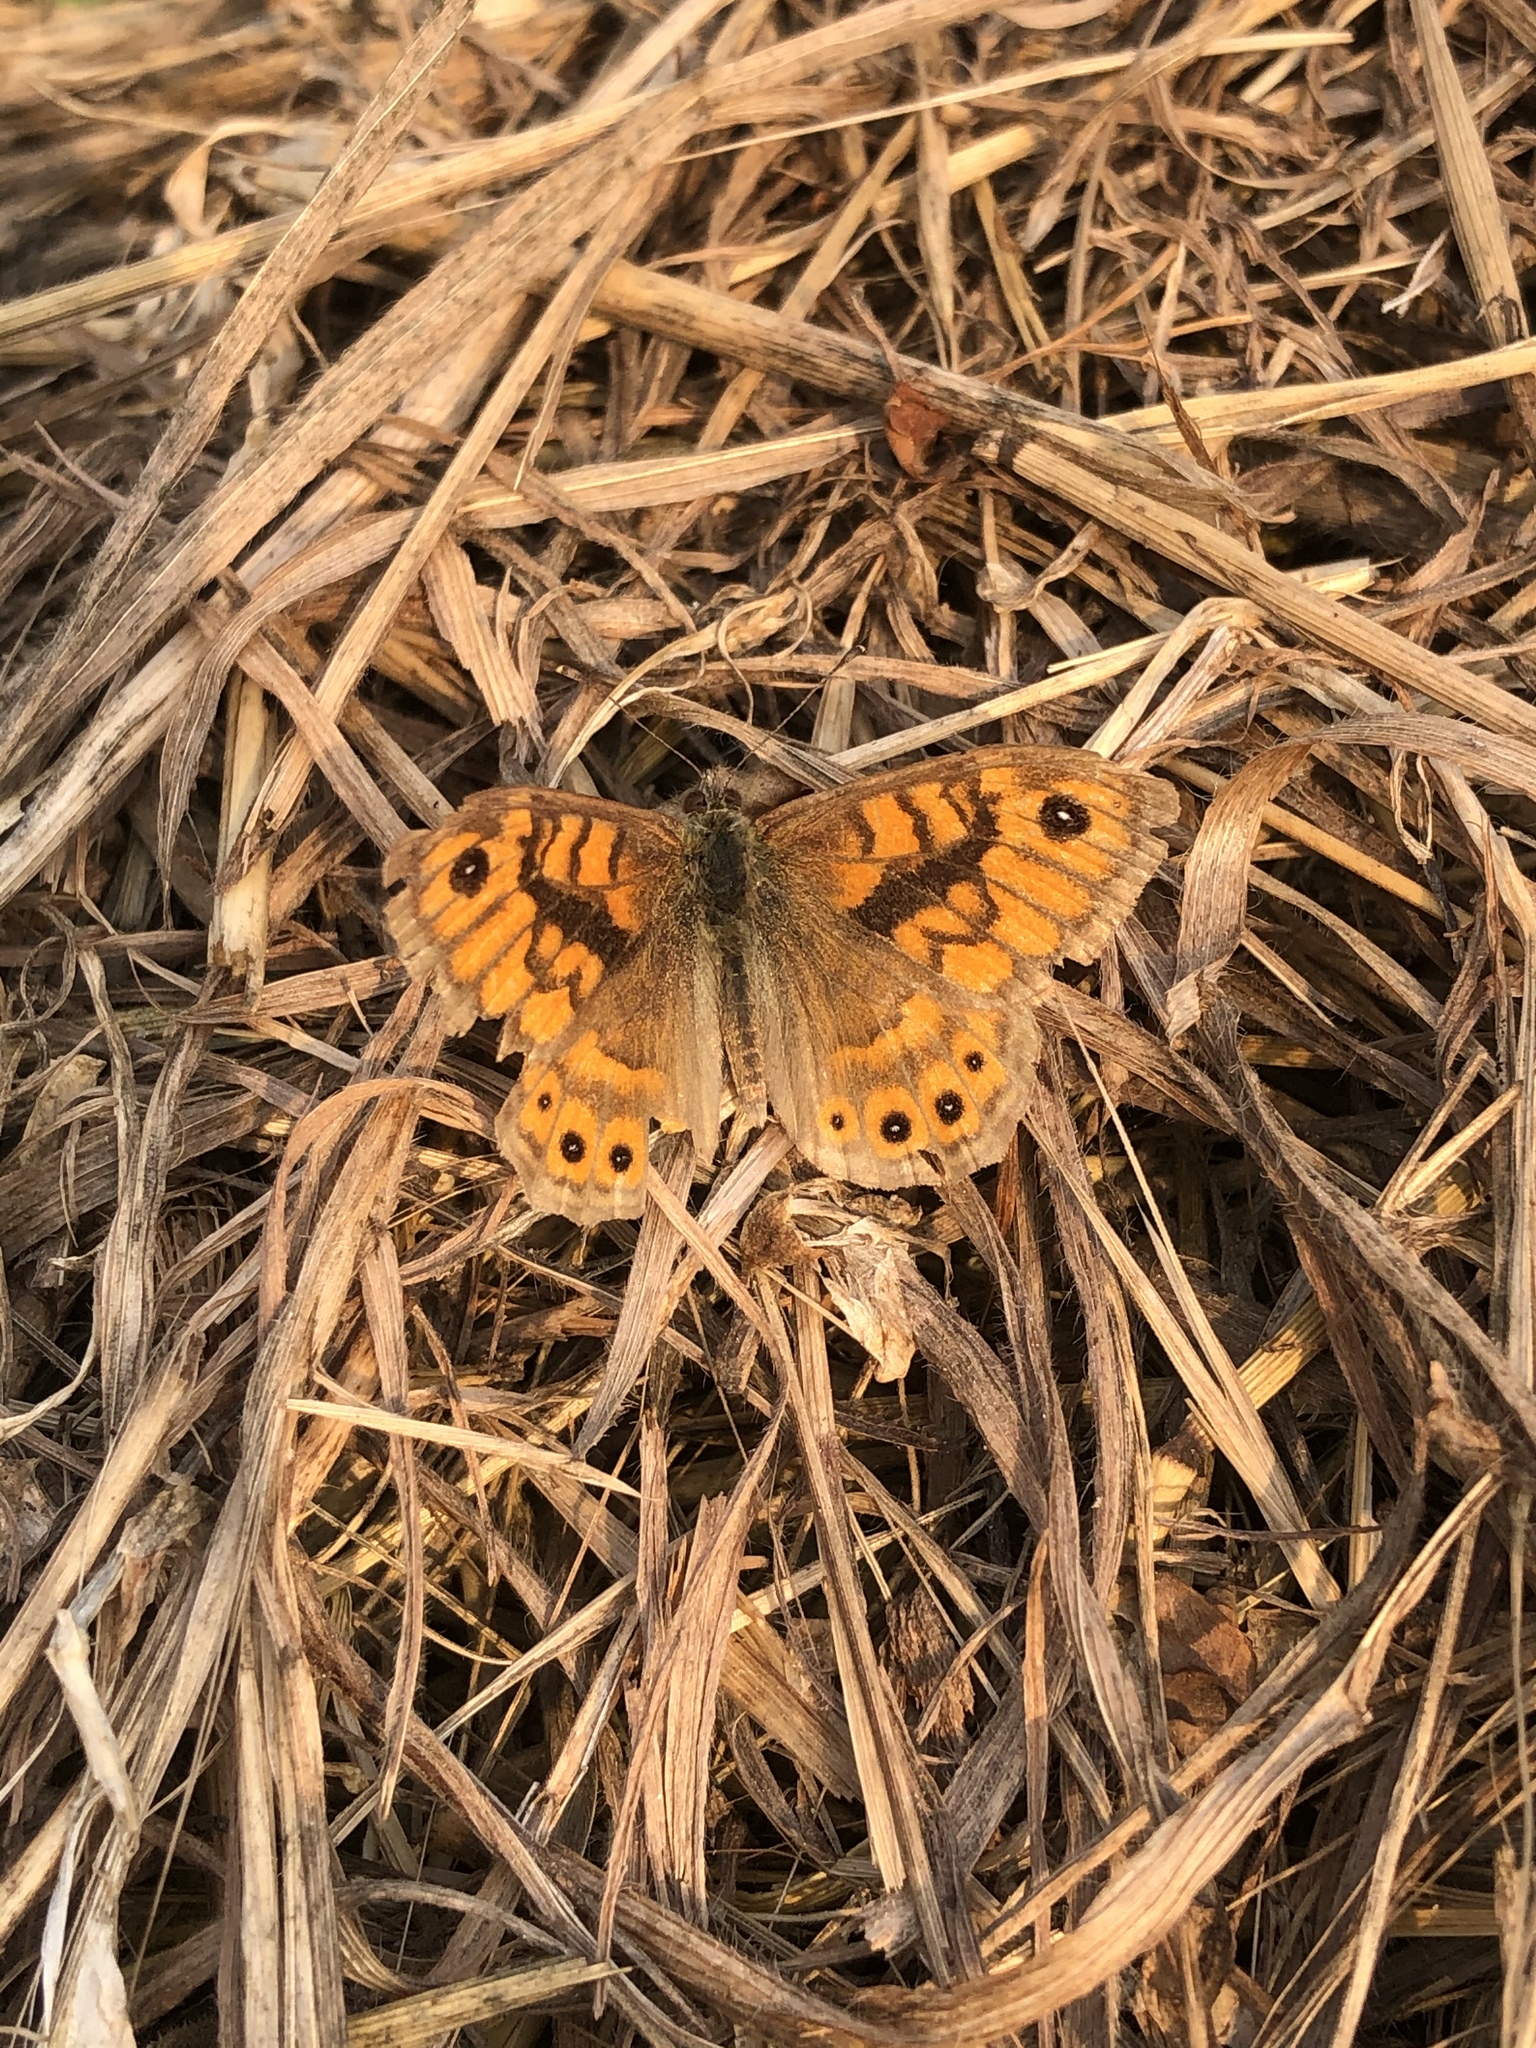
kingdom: Animalia
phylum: Arthropoda
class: Insecta
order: Lepidoptera
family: Nymphalidae
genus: Pararge
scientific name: Pararge Lasiommata megera
